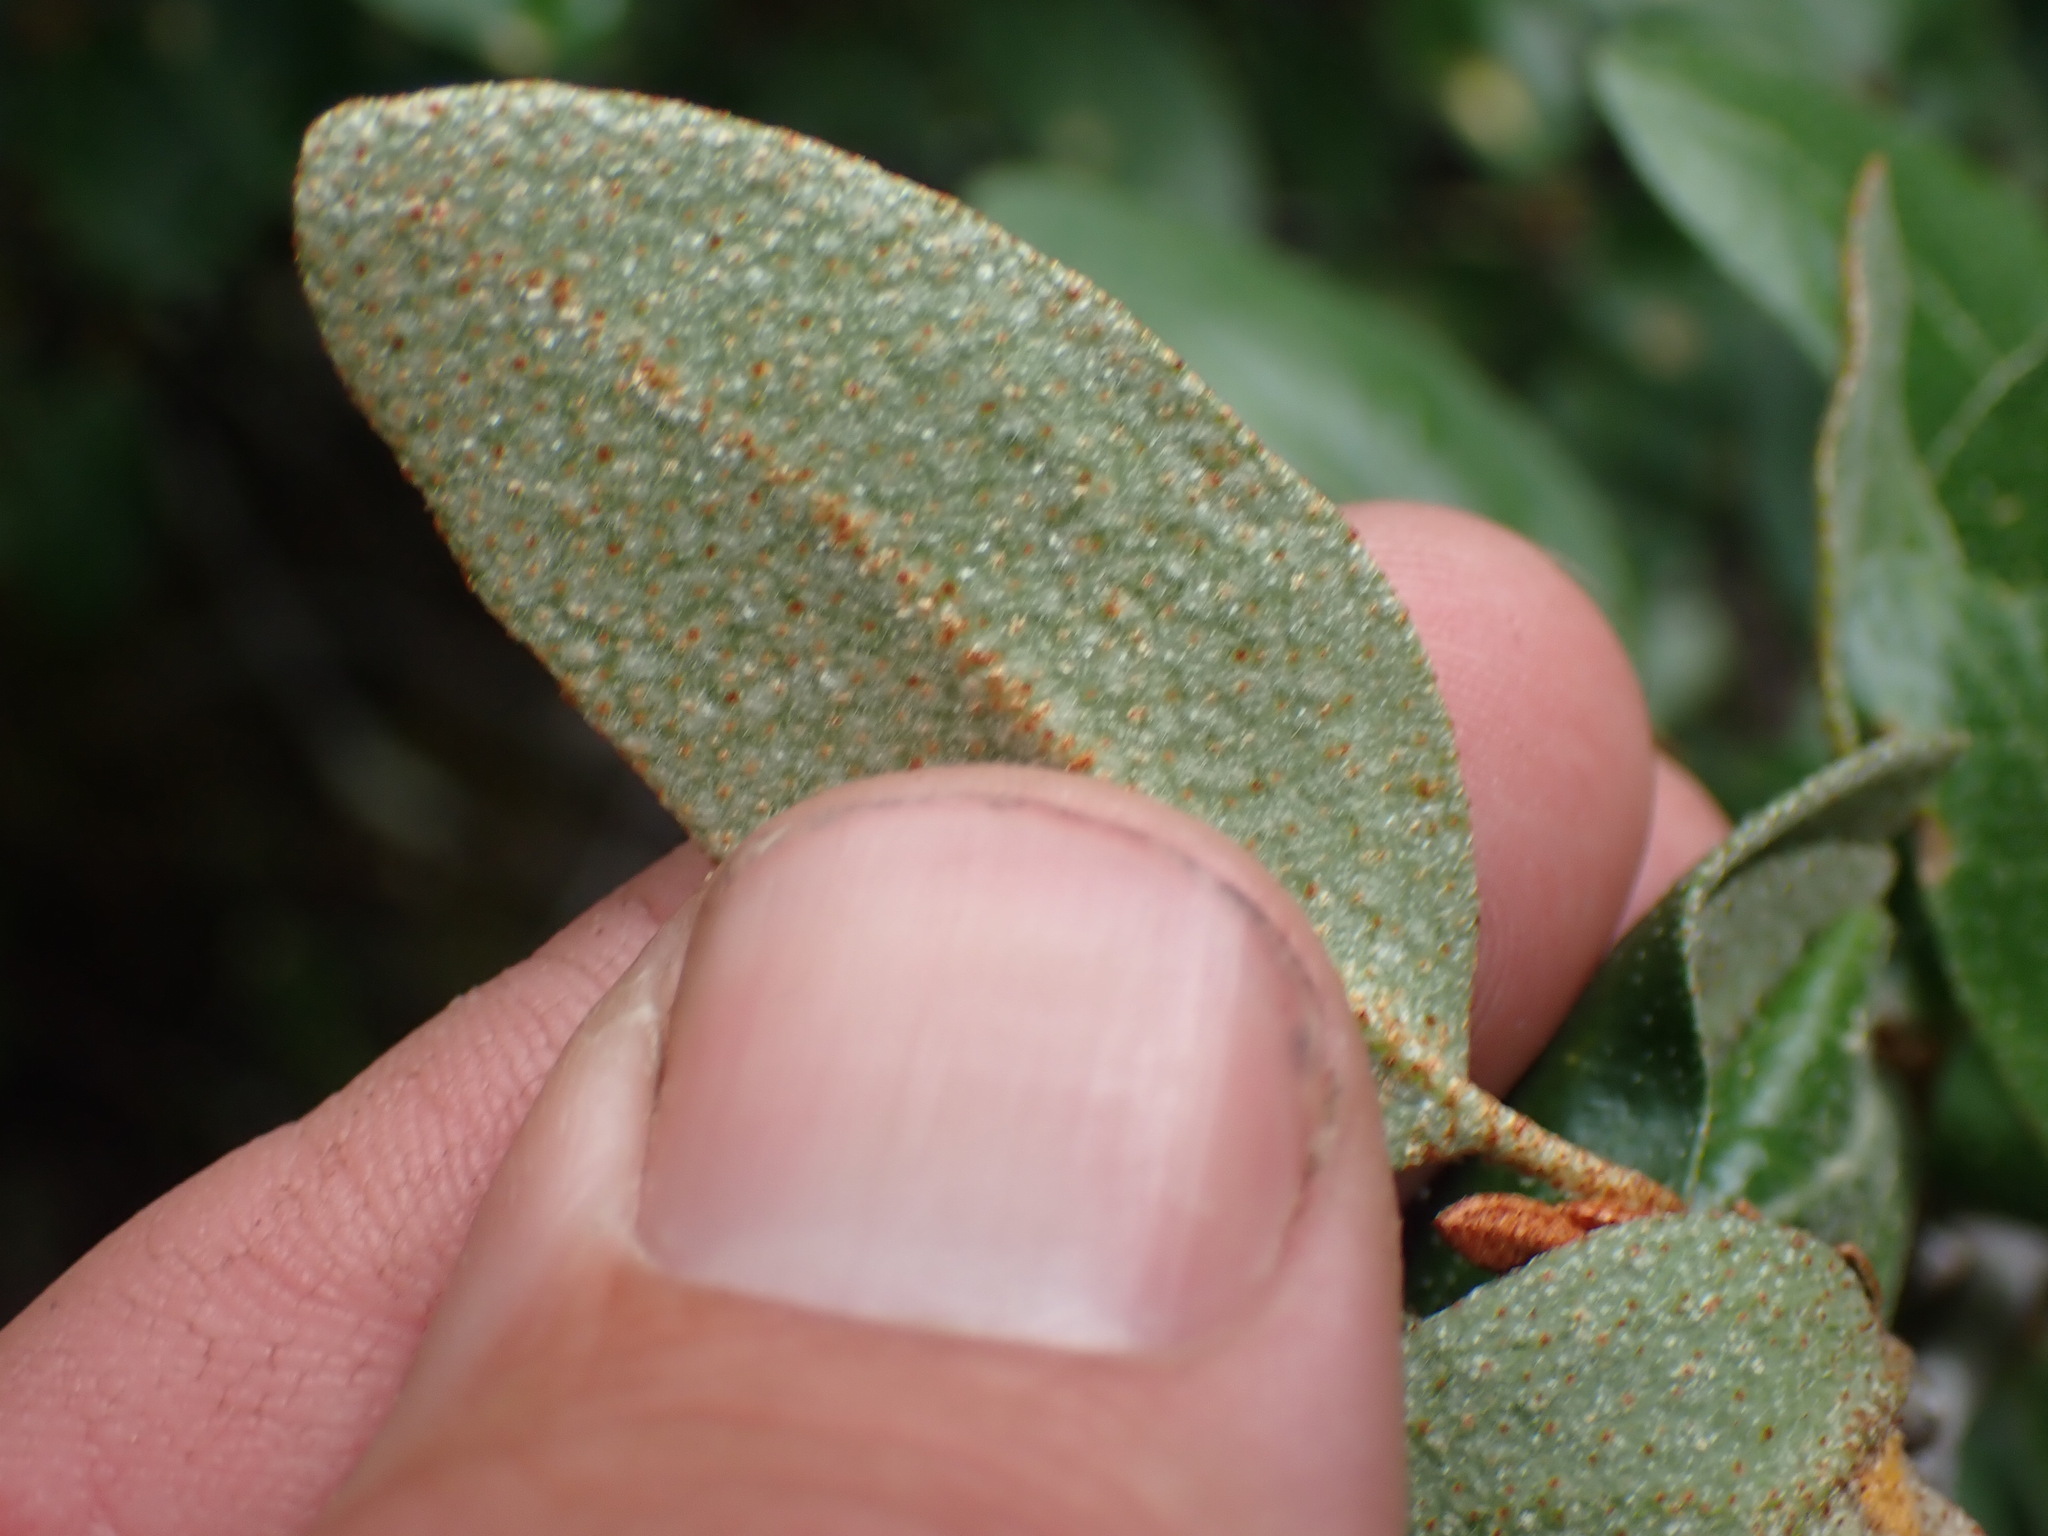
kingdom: Plantae
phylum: Tracheophyta
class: Magnoliopsida
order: Rosales
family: Elaeagnaceae
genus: Shepherdia
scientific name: Shepherdia canadensis
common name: Soapberry
